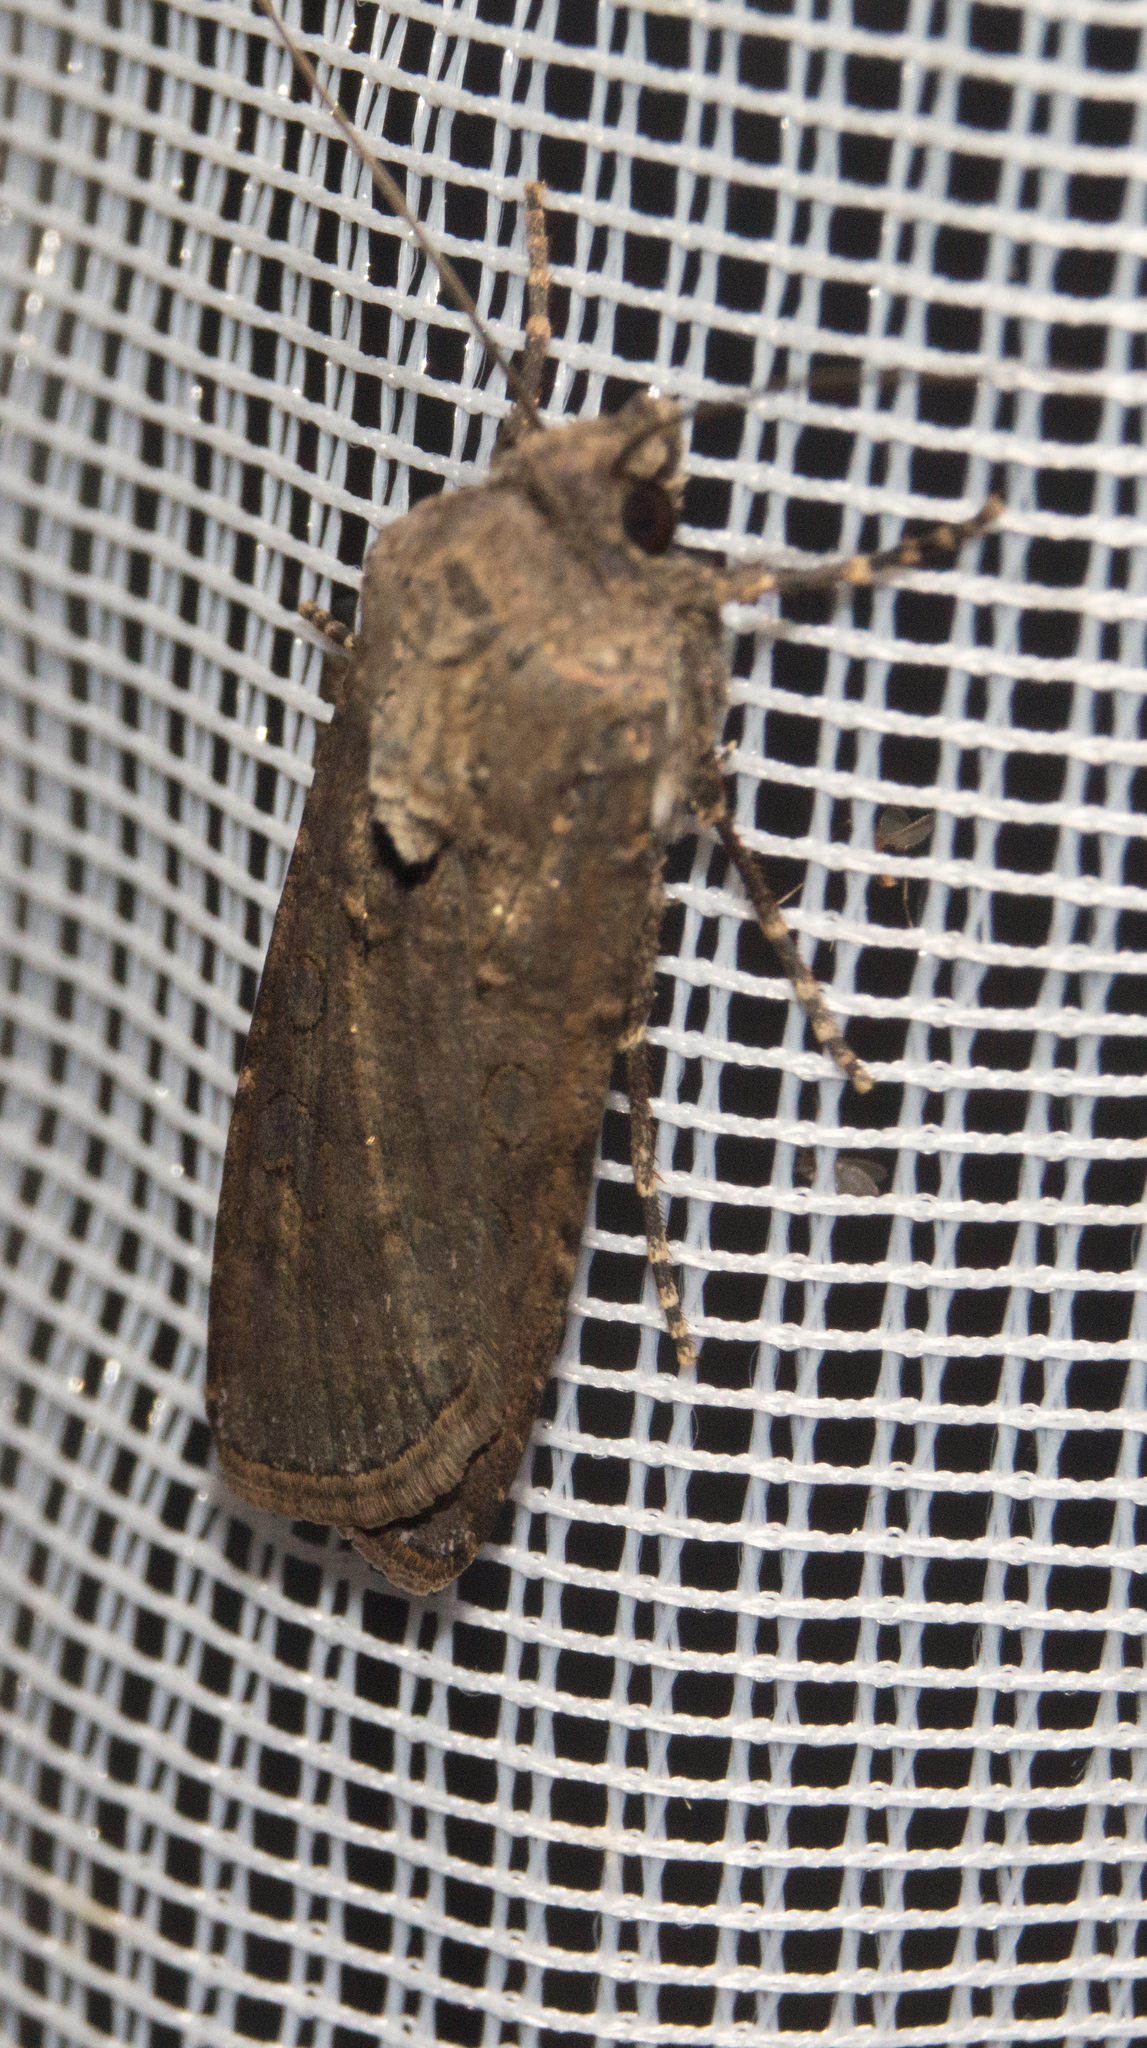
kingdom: Animalia
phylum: Arthropoda
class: Insecta
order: Lepidoptera
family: Noctuidae
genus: Agrotis
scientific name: Agrotis segetum
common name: Turnip moth
